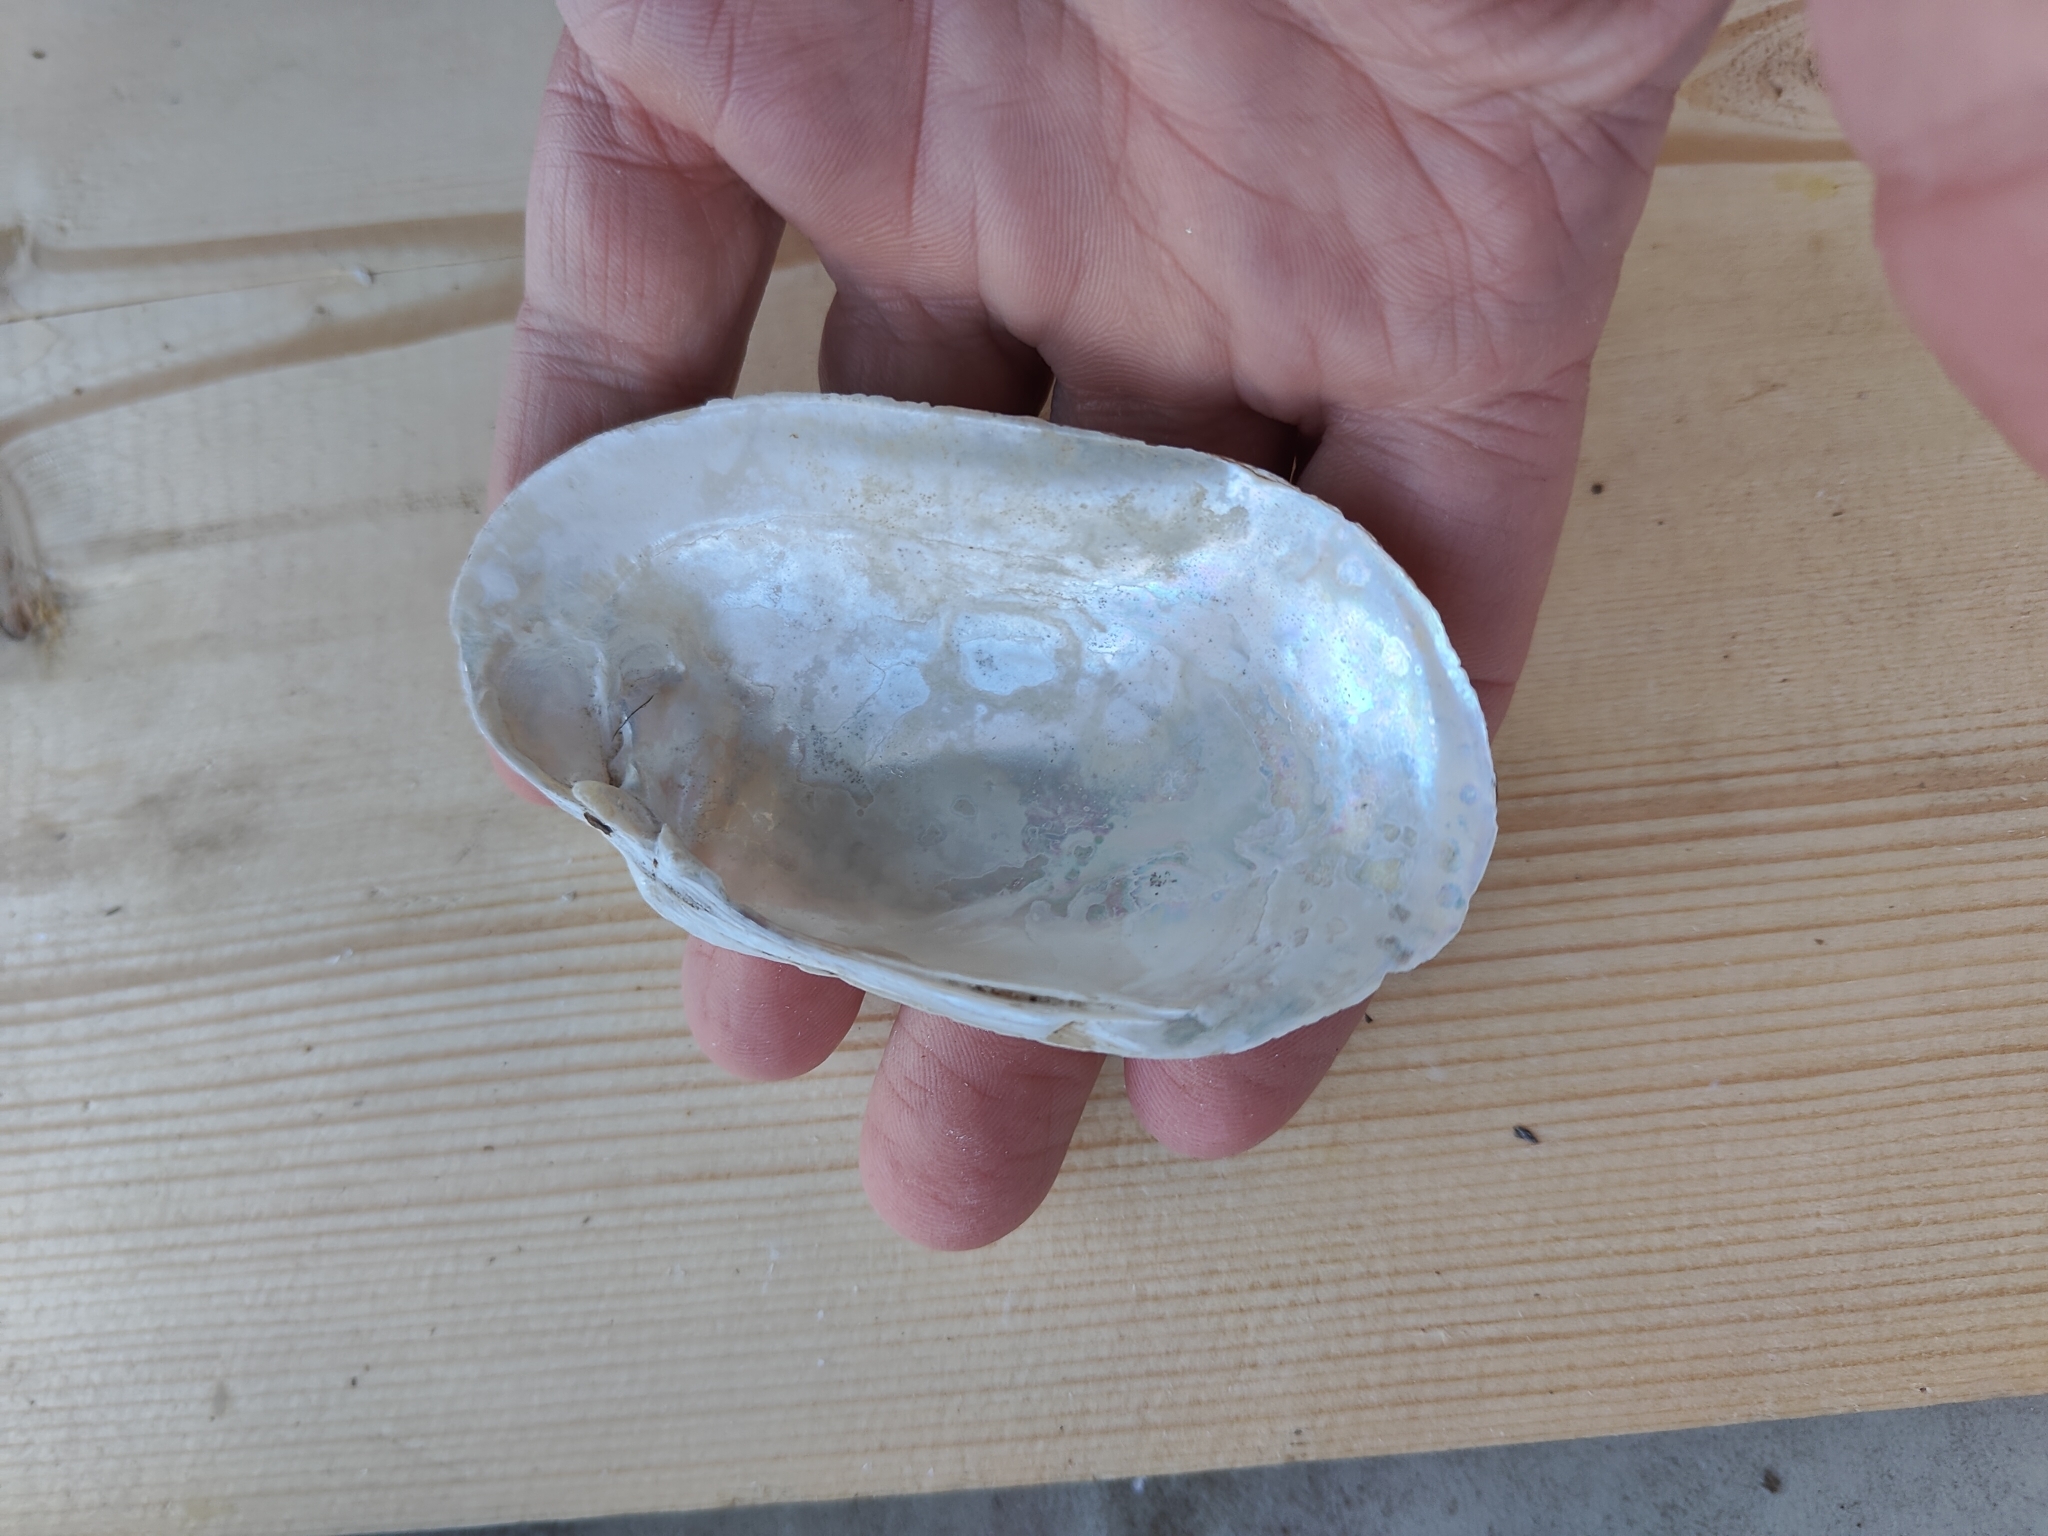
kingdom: Animalia
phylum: Mollusca
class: Bivalvia
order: Unionida
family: Unionidae
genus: Lampsilis
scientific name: Lampsilis siliquoidea
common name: Fatmucket
